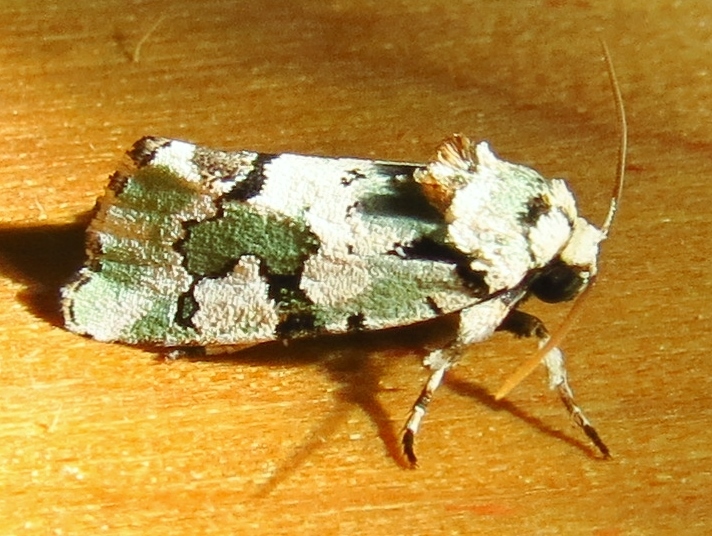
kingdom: Animalia
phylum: Arthropoda
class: Insecta
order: Lepidoptera
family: Noctuidae
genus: Emarginea
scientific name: Emarginea percara
